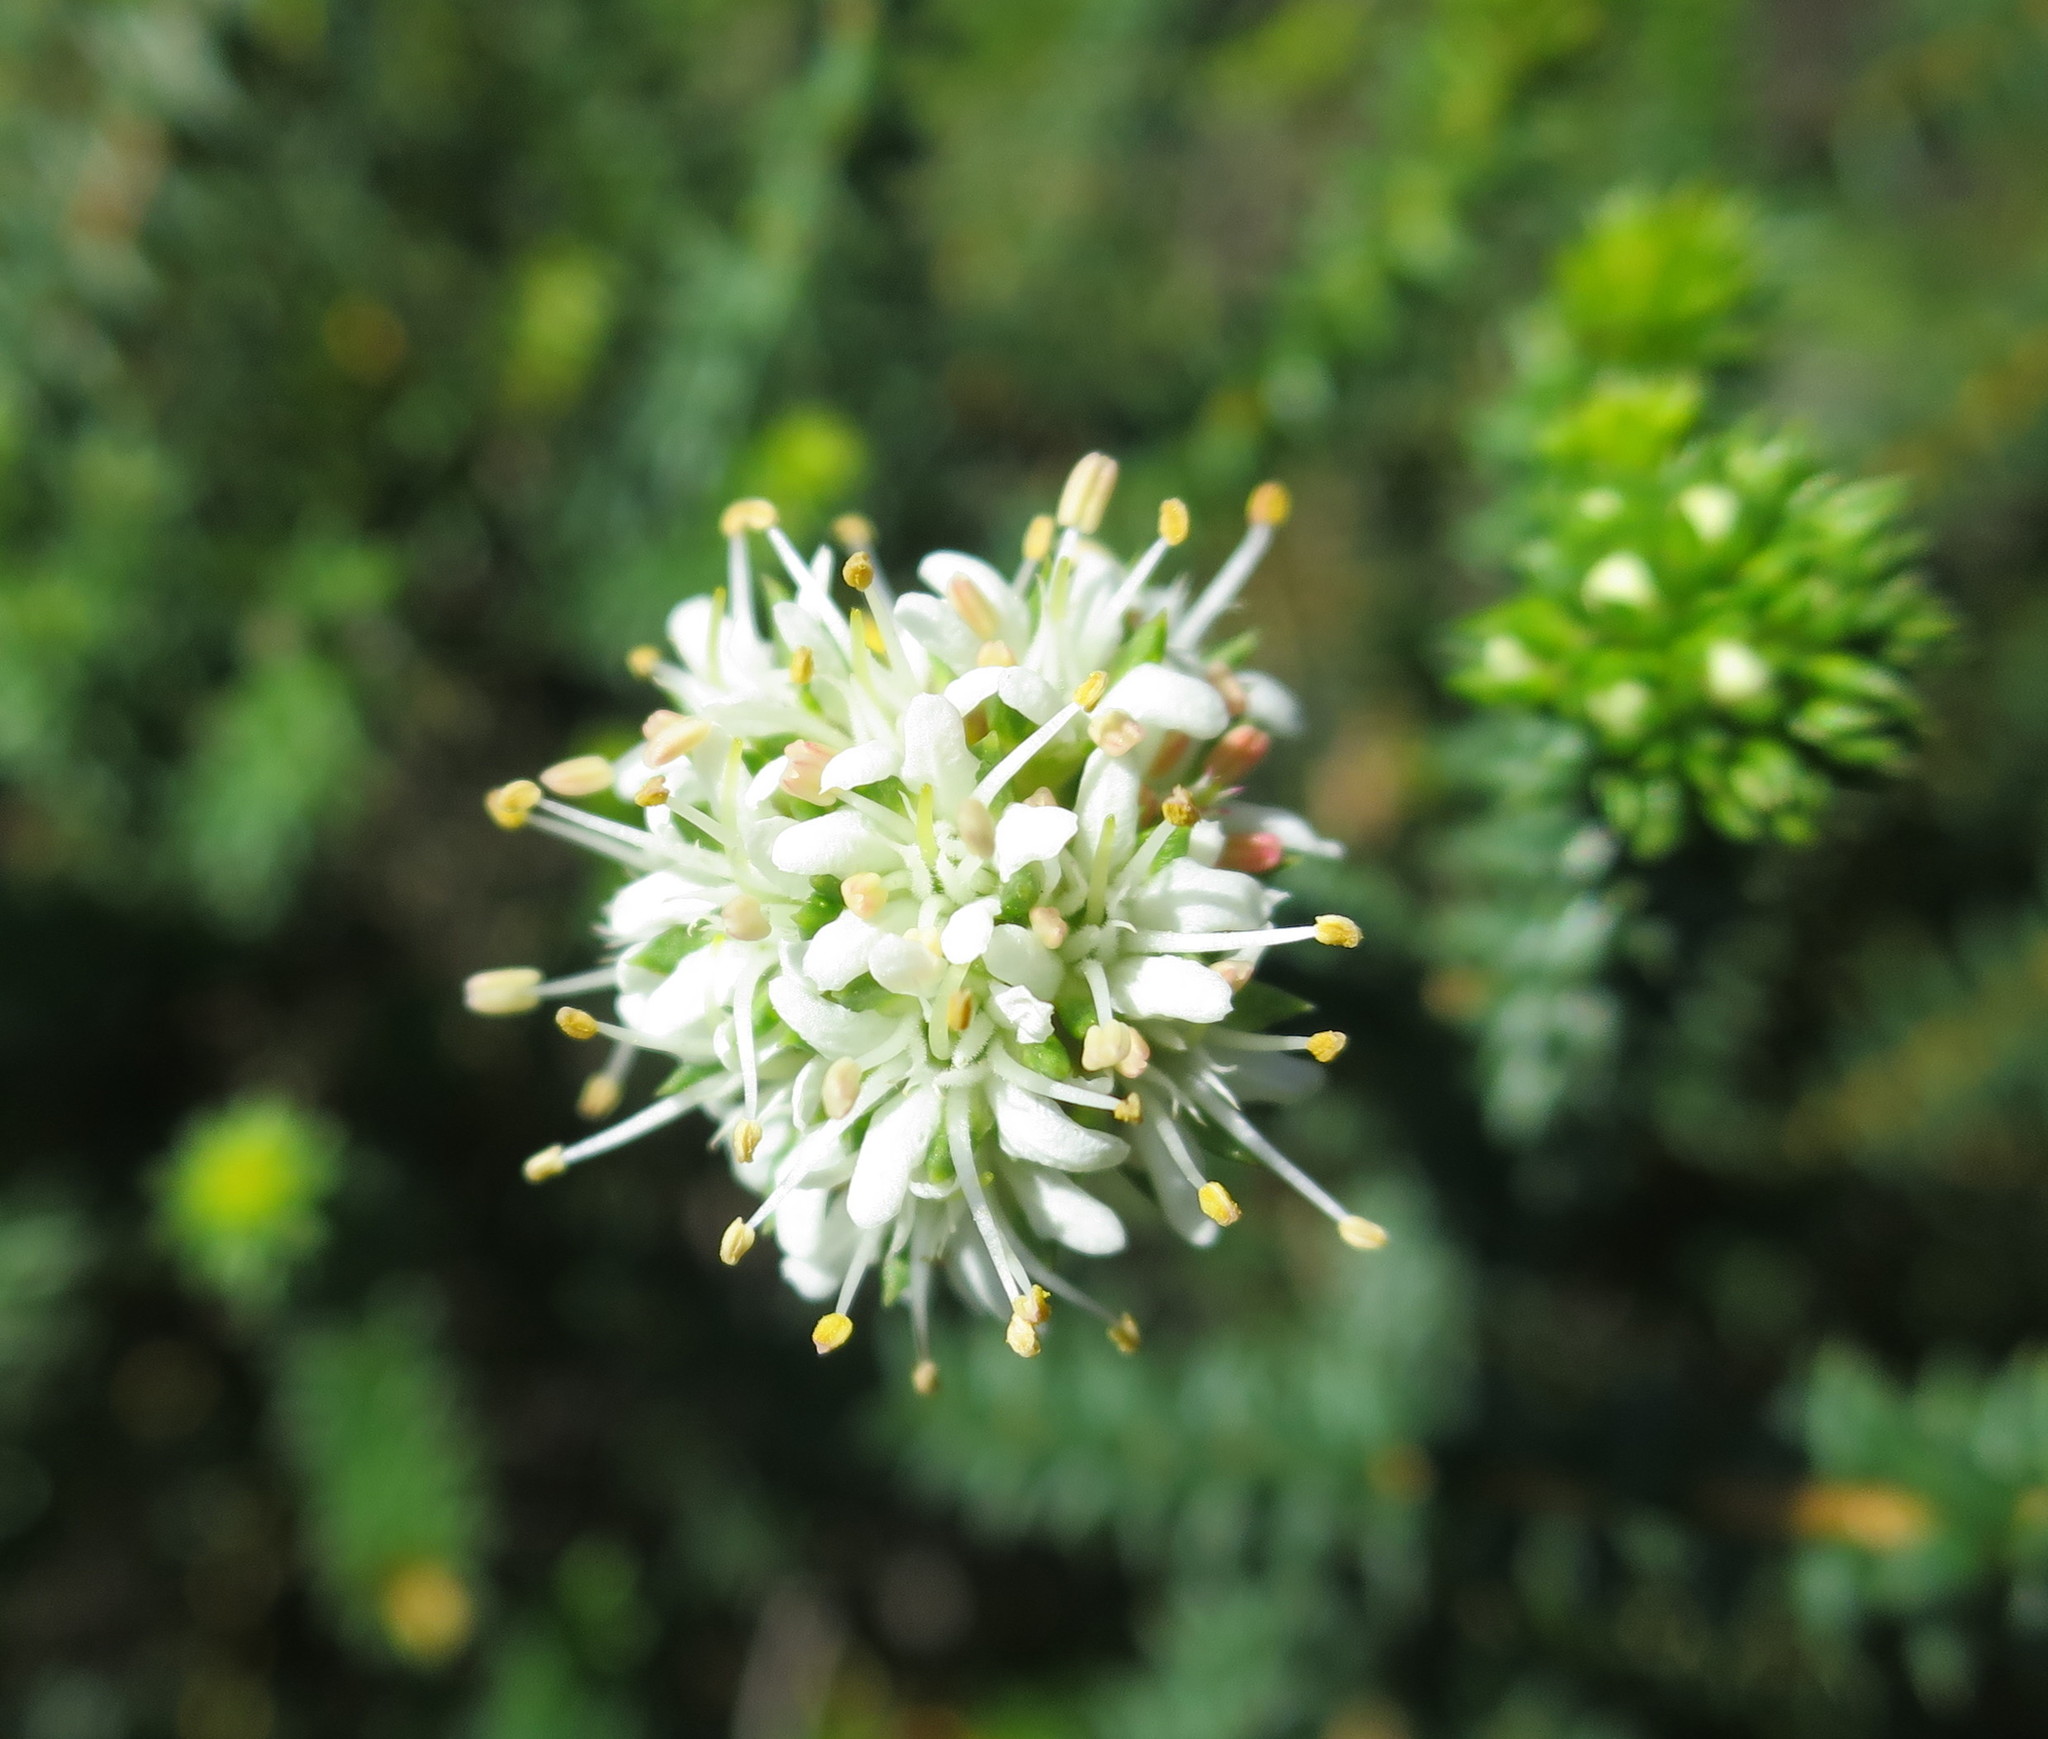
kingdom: Plantae
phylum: Tracheophyta
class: Magnoliopsida
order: Sapindales
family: Rutaceae
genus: Agathosma
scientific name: Agathosma apiculata
